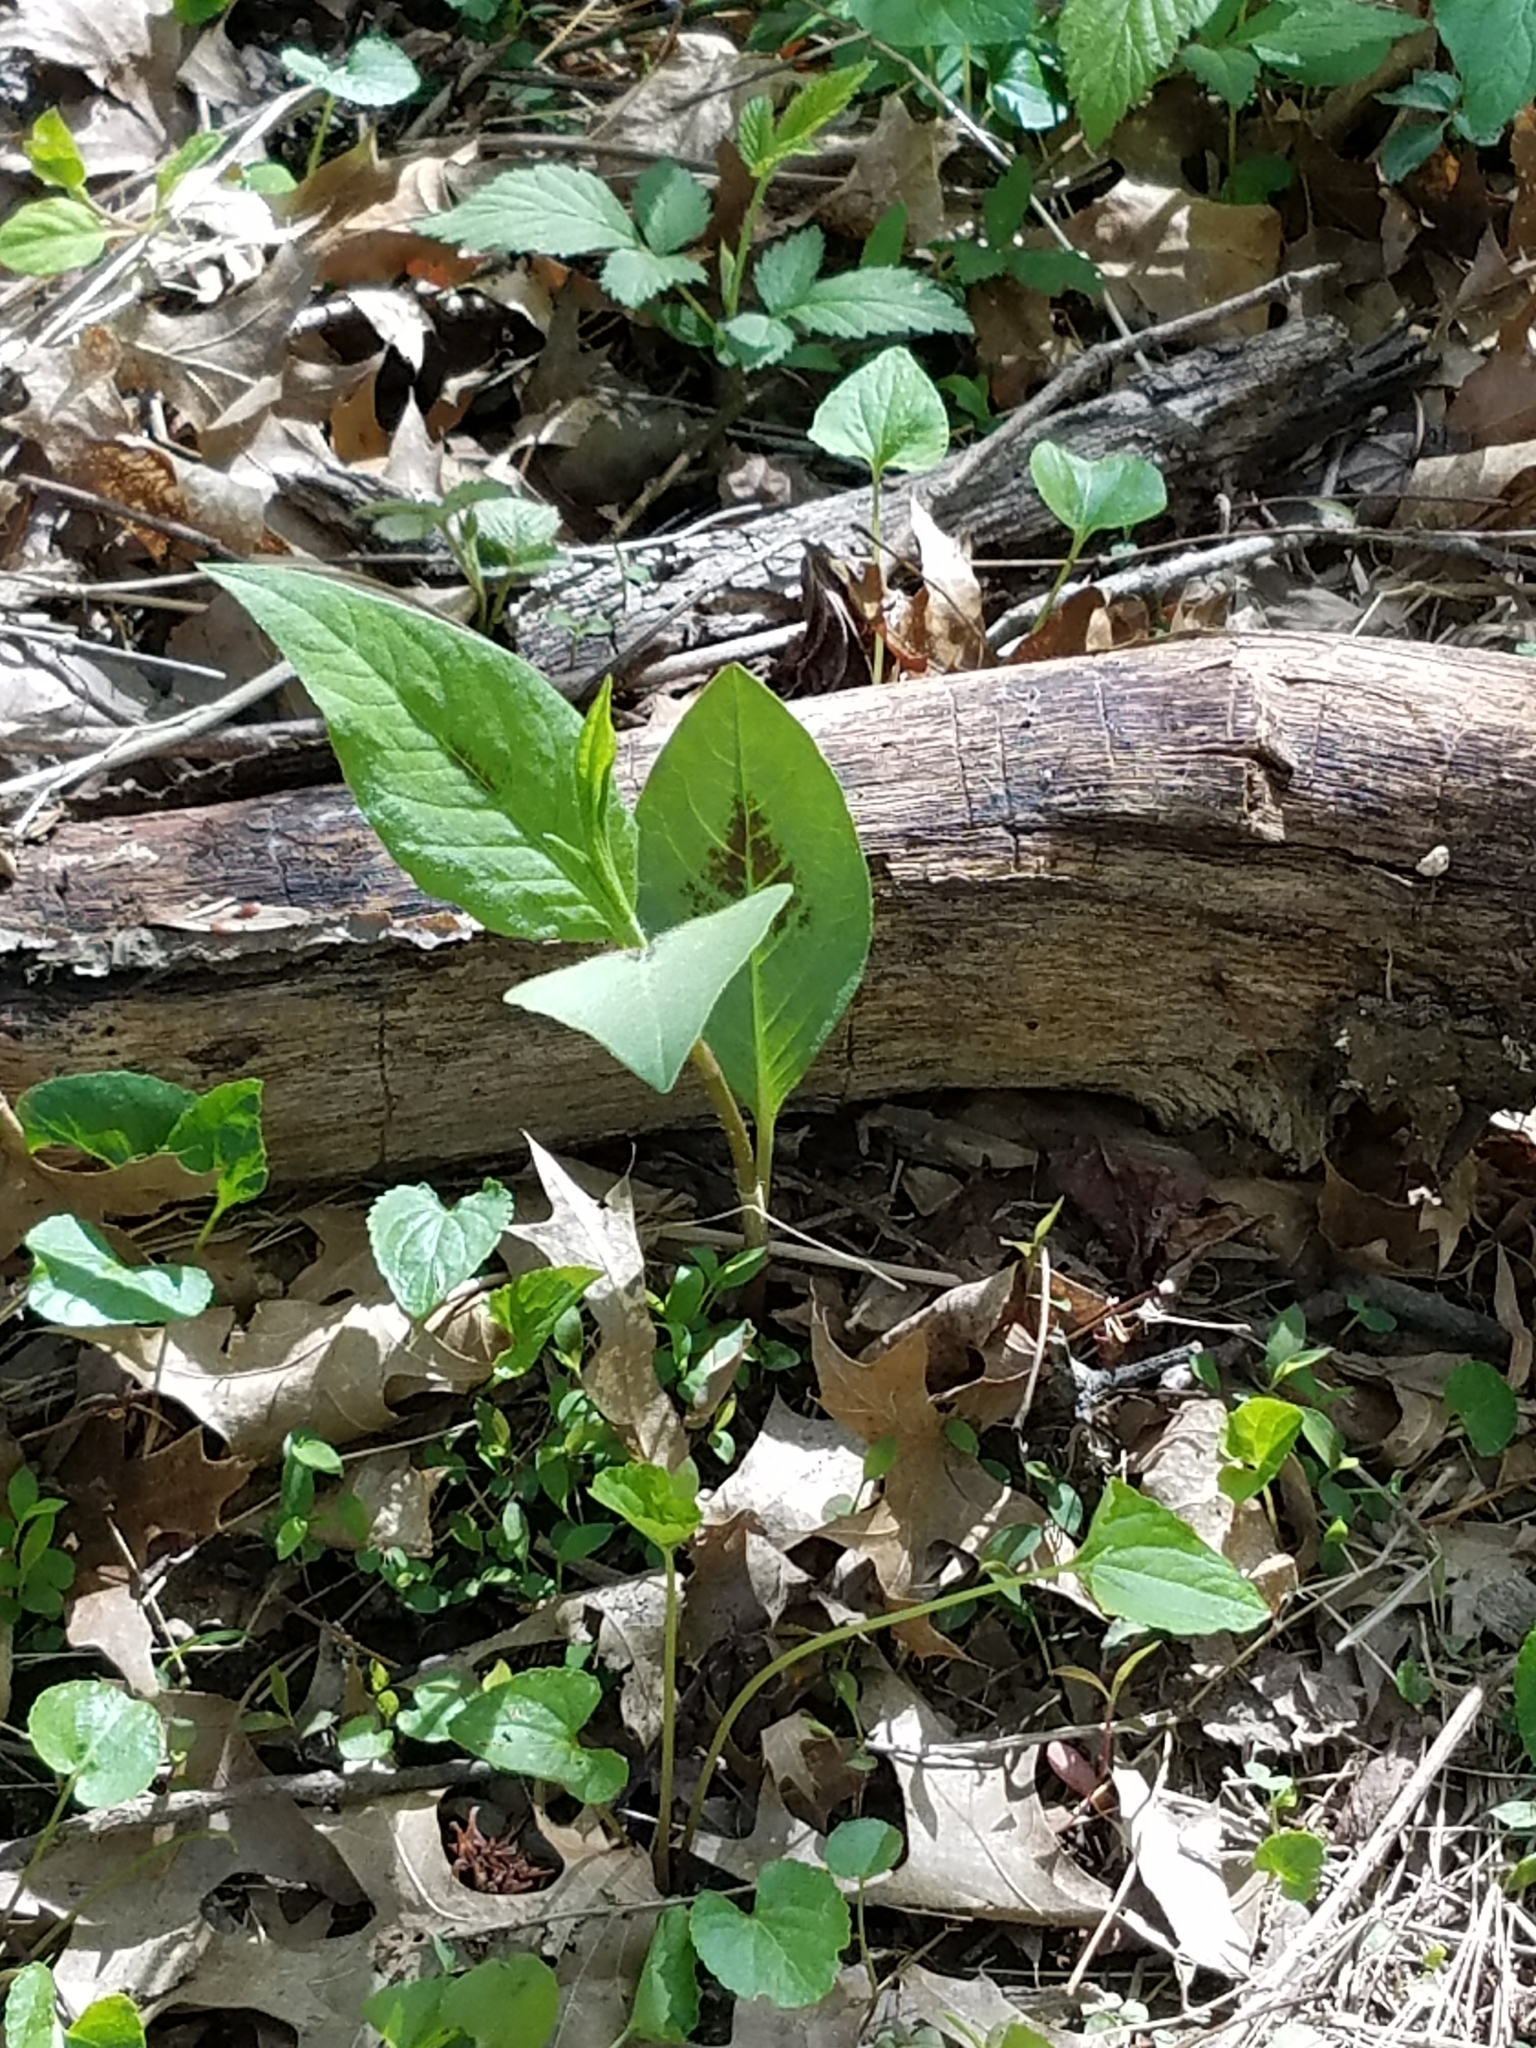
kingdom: Plantae
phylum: Tracheophyta
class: Magnoliopsida
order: Caryophyllales
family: Polygonaceae
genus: Persicaria
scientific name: Persicaria virginiana
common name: Jumpseed
